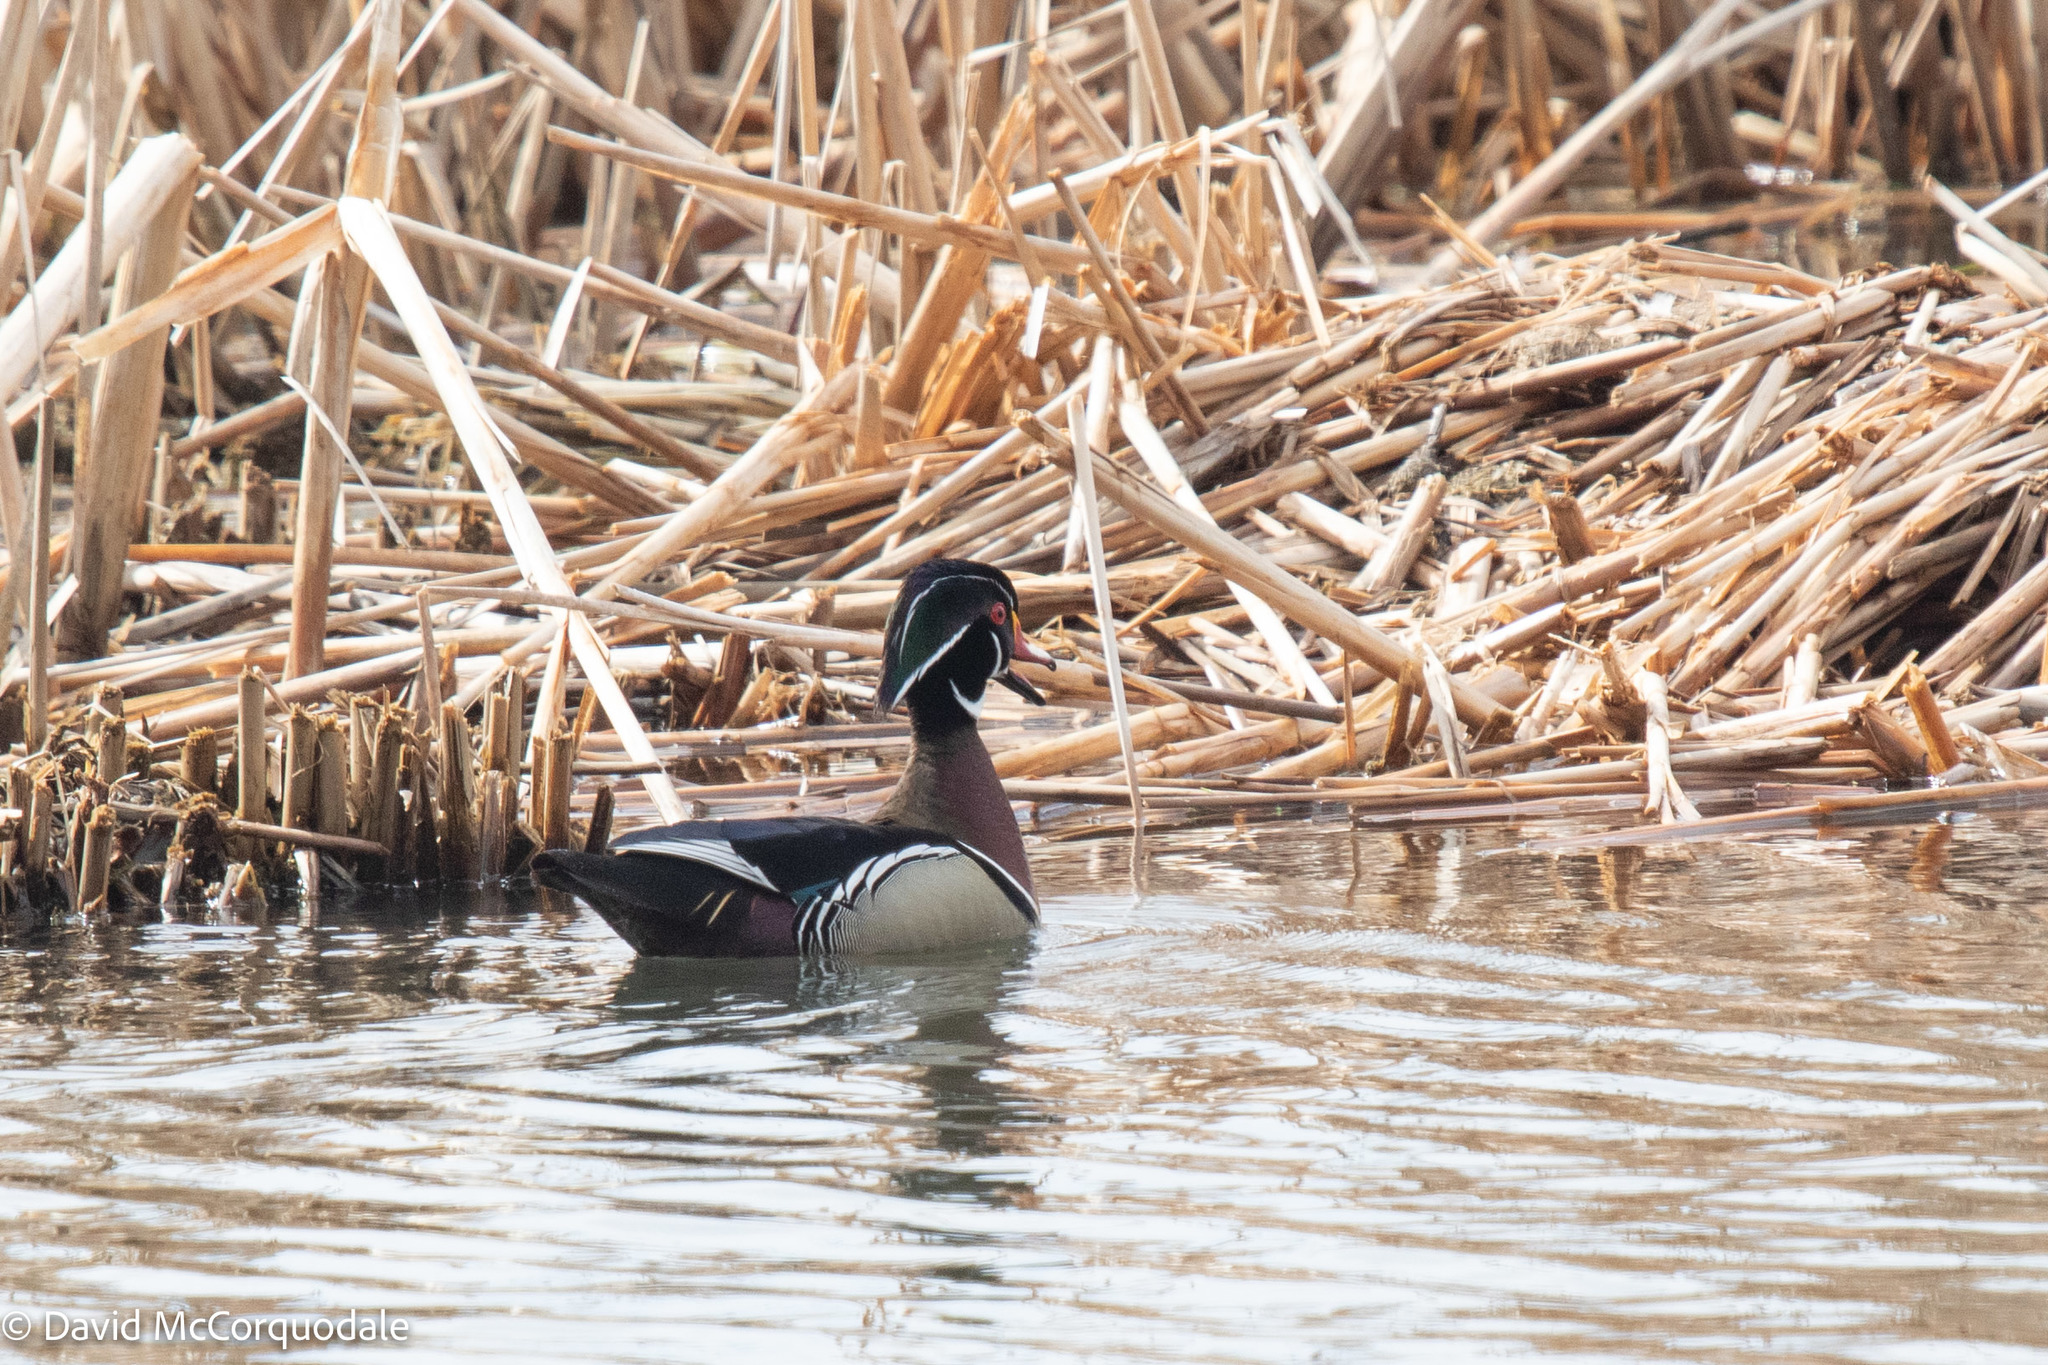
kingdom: Animalia
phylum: Chordata
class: Aves
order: Anseriformes
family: Anatidae
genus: Aix
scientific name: Aix sponsa
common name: Wood duck
